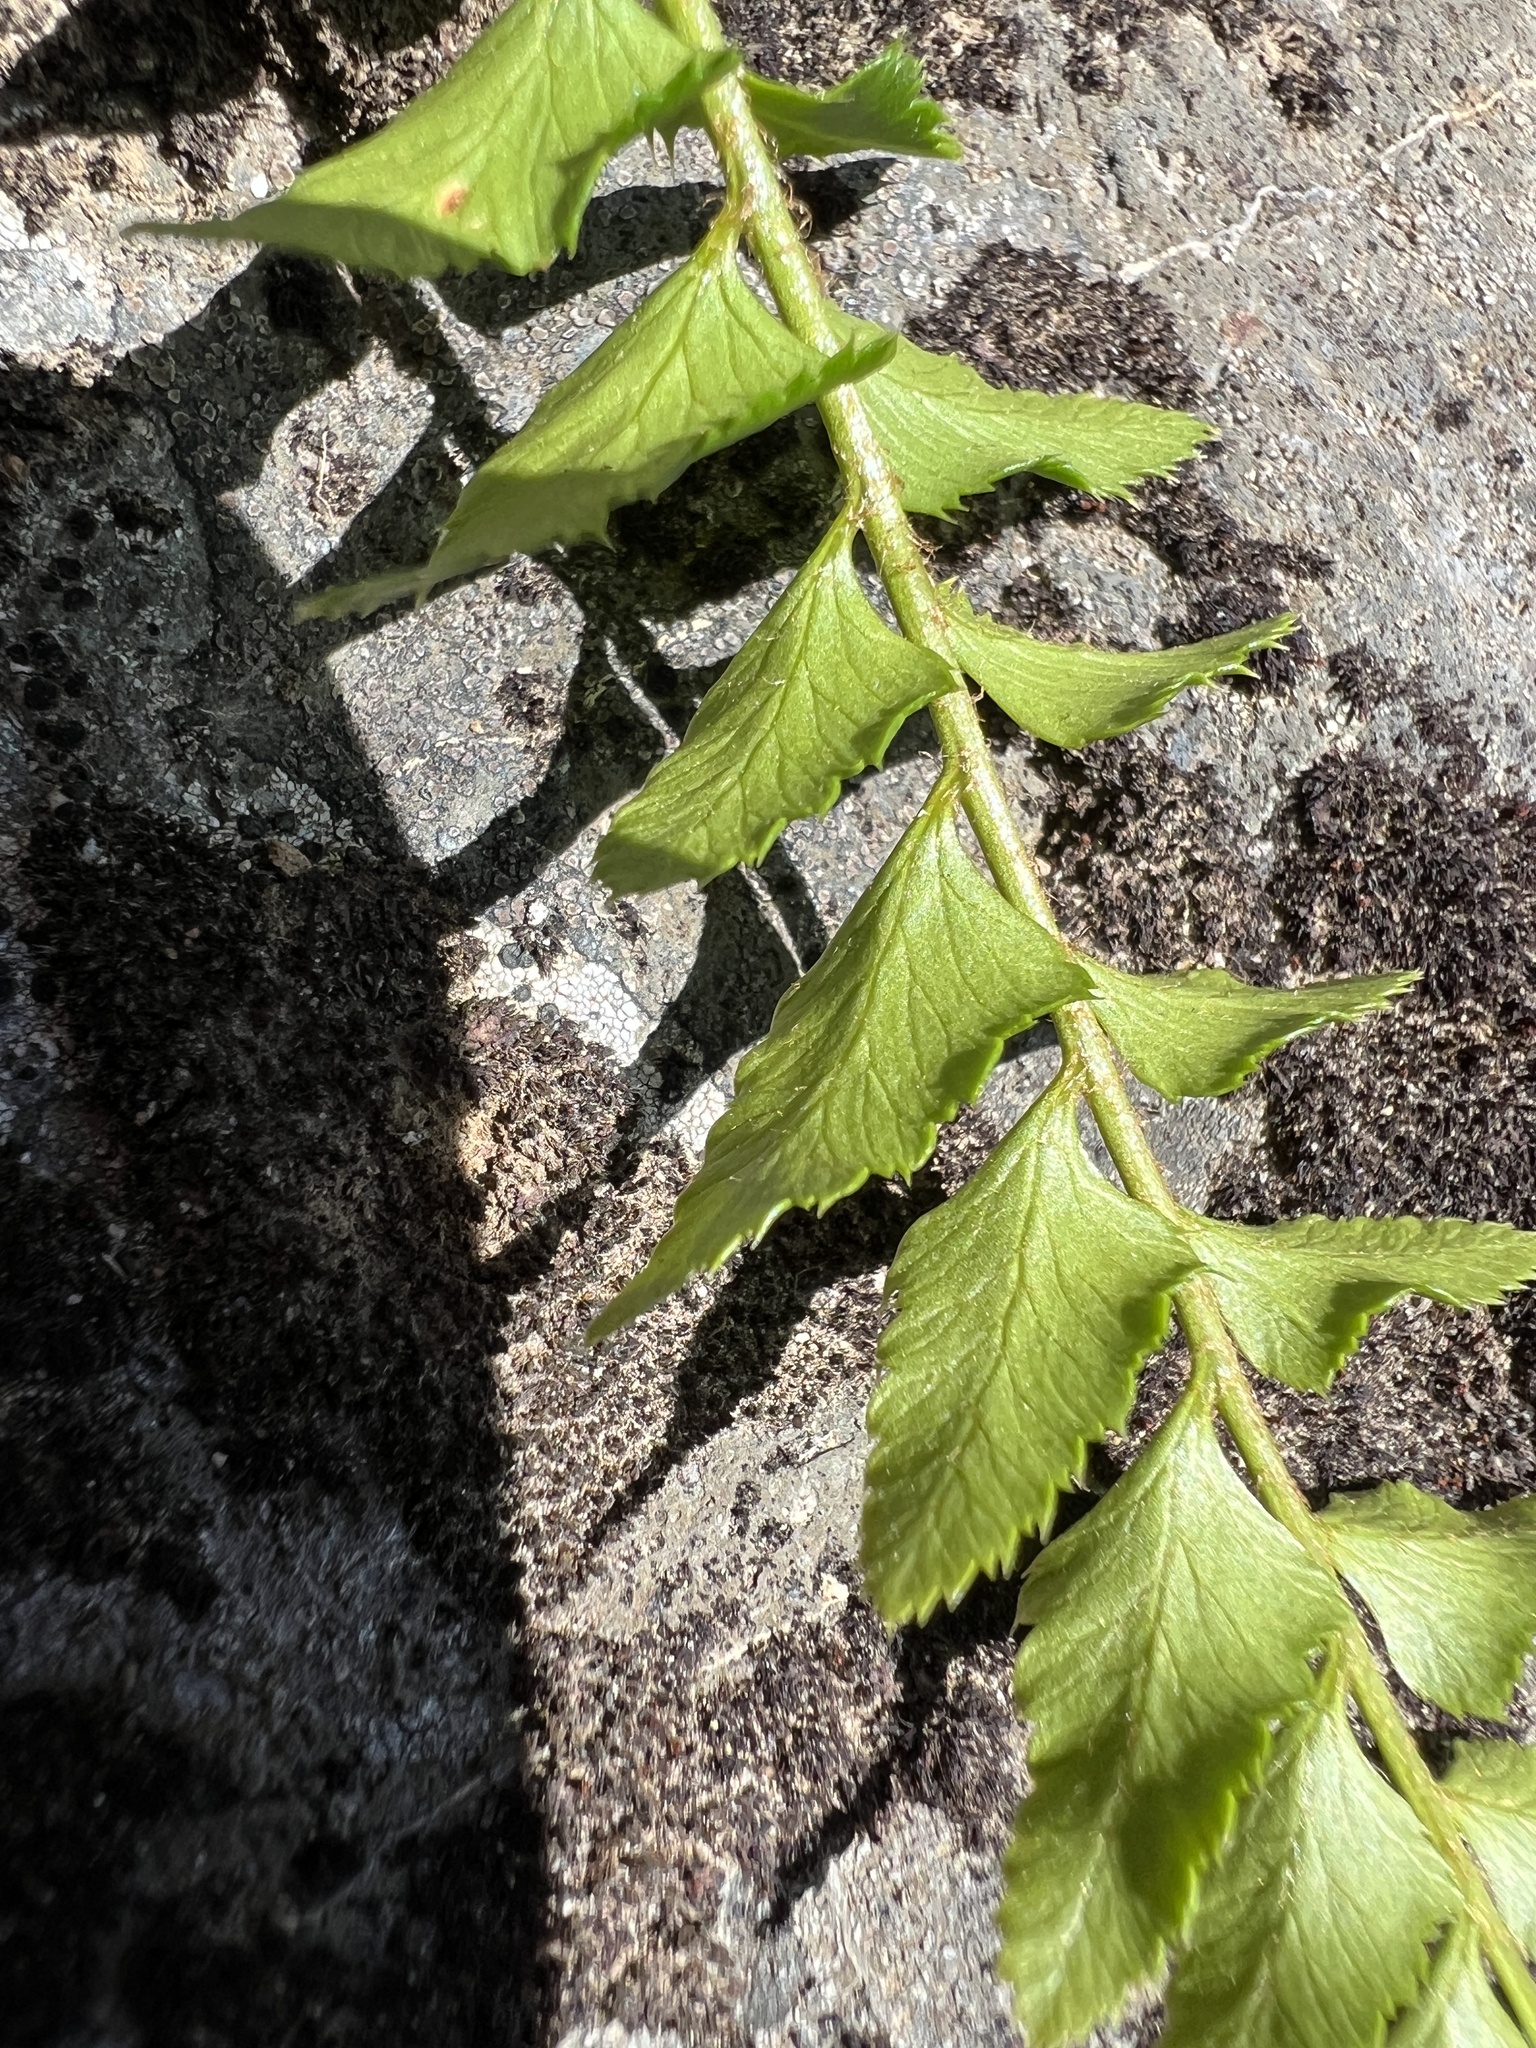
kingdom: Plantae
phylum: Tracheophyta
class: Polypodiopsida
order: Polypodiales
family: Dryopteridaceae
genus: Polystichum
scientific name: Polystichum munitum
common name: Western sword-fern
